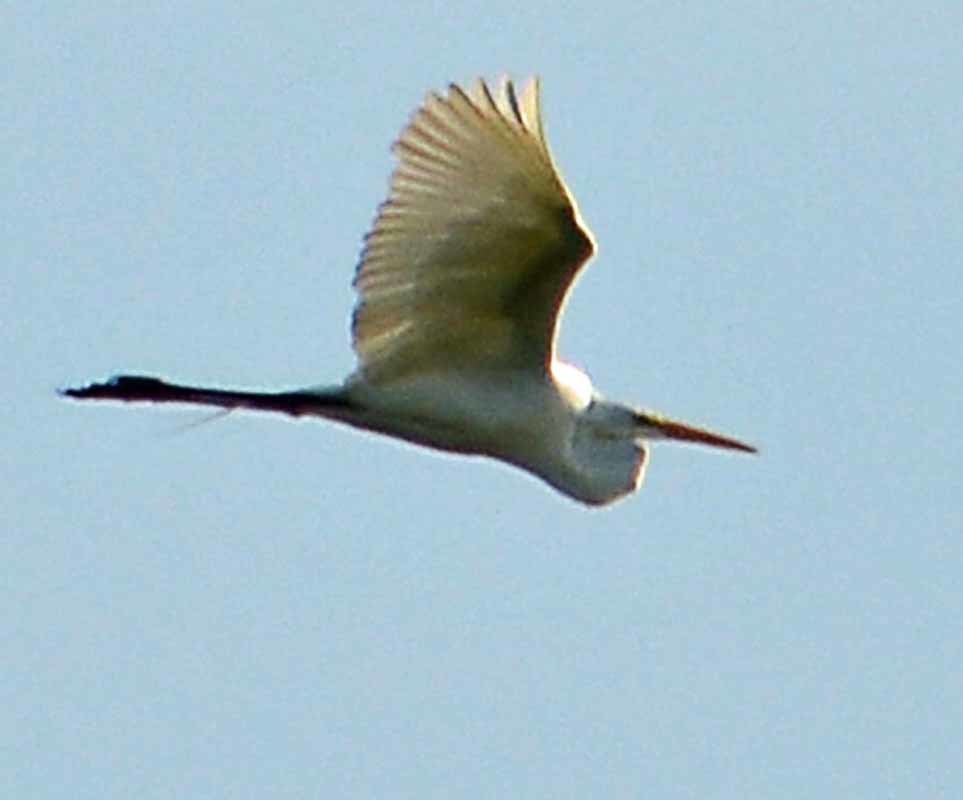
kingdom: Animalia
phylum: Chordata
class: Aves
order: Pelecaniformes
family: Ardeidae
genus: Ardea
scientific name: Ardea alba
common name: Great egret
